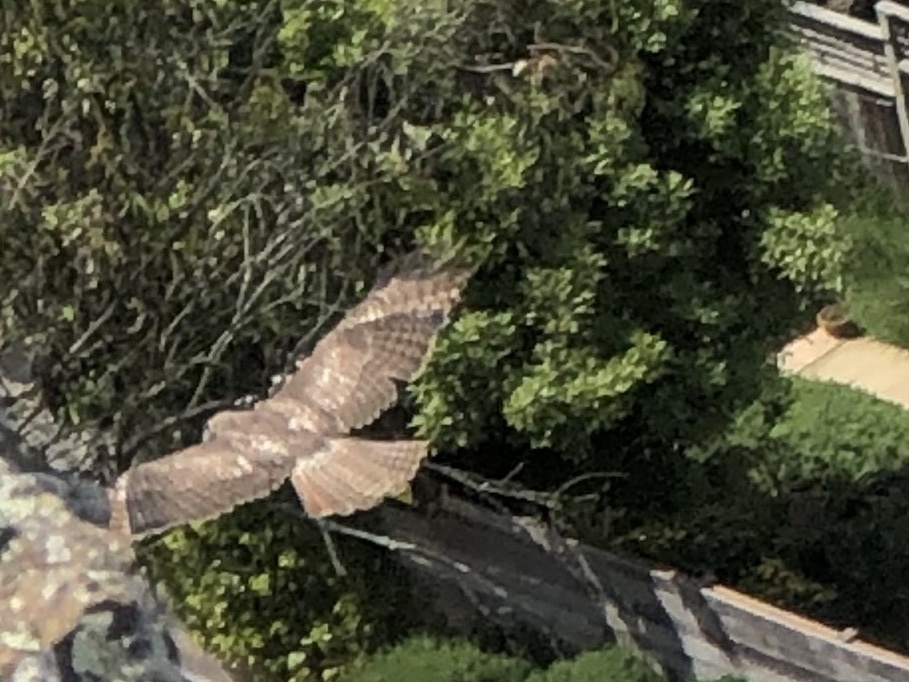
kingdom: Animalia
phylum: Chordata
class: Aves
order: Accipitriformes
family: Accipitridae
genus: Buteo
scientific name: Buteo jamaicensis
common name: Red-tailed hawk
